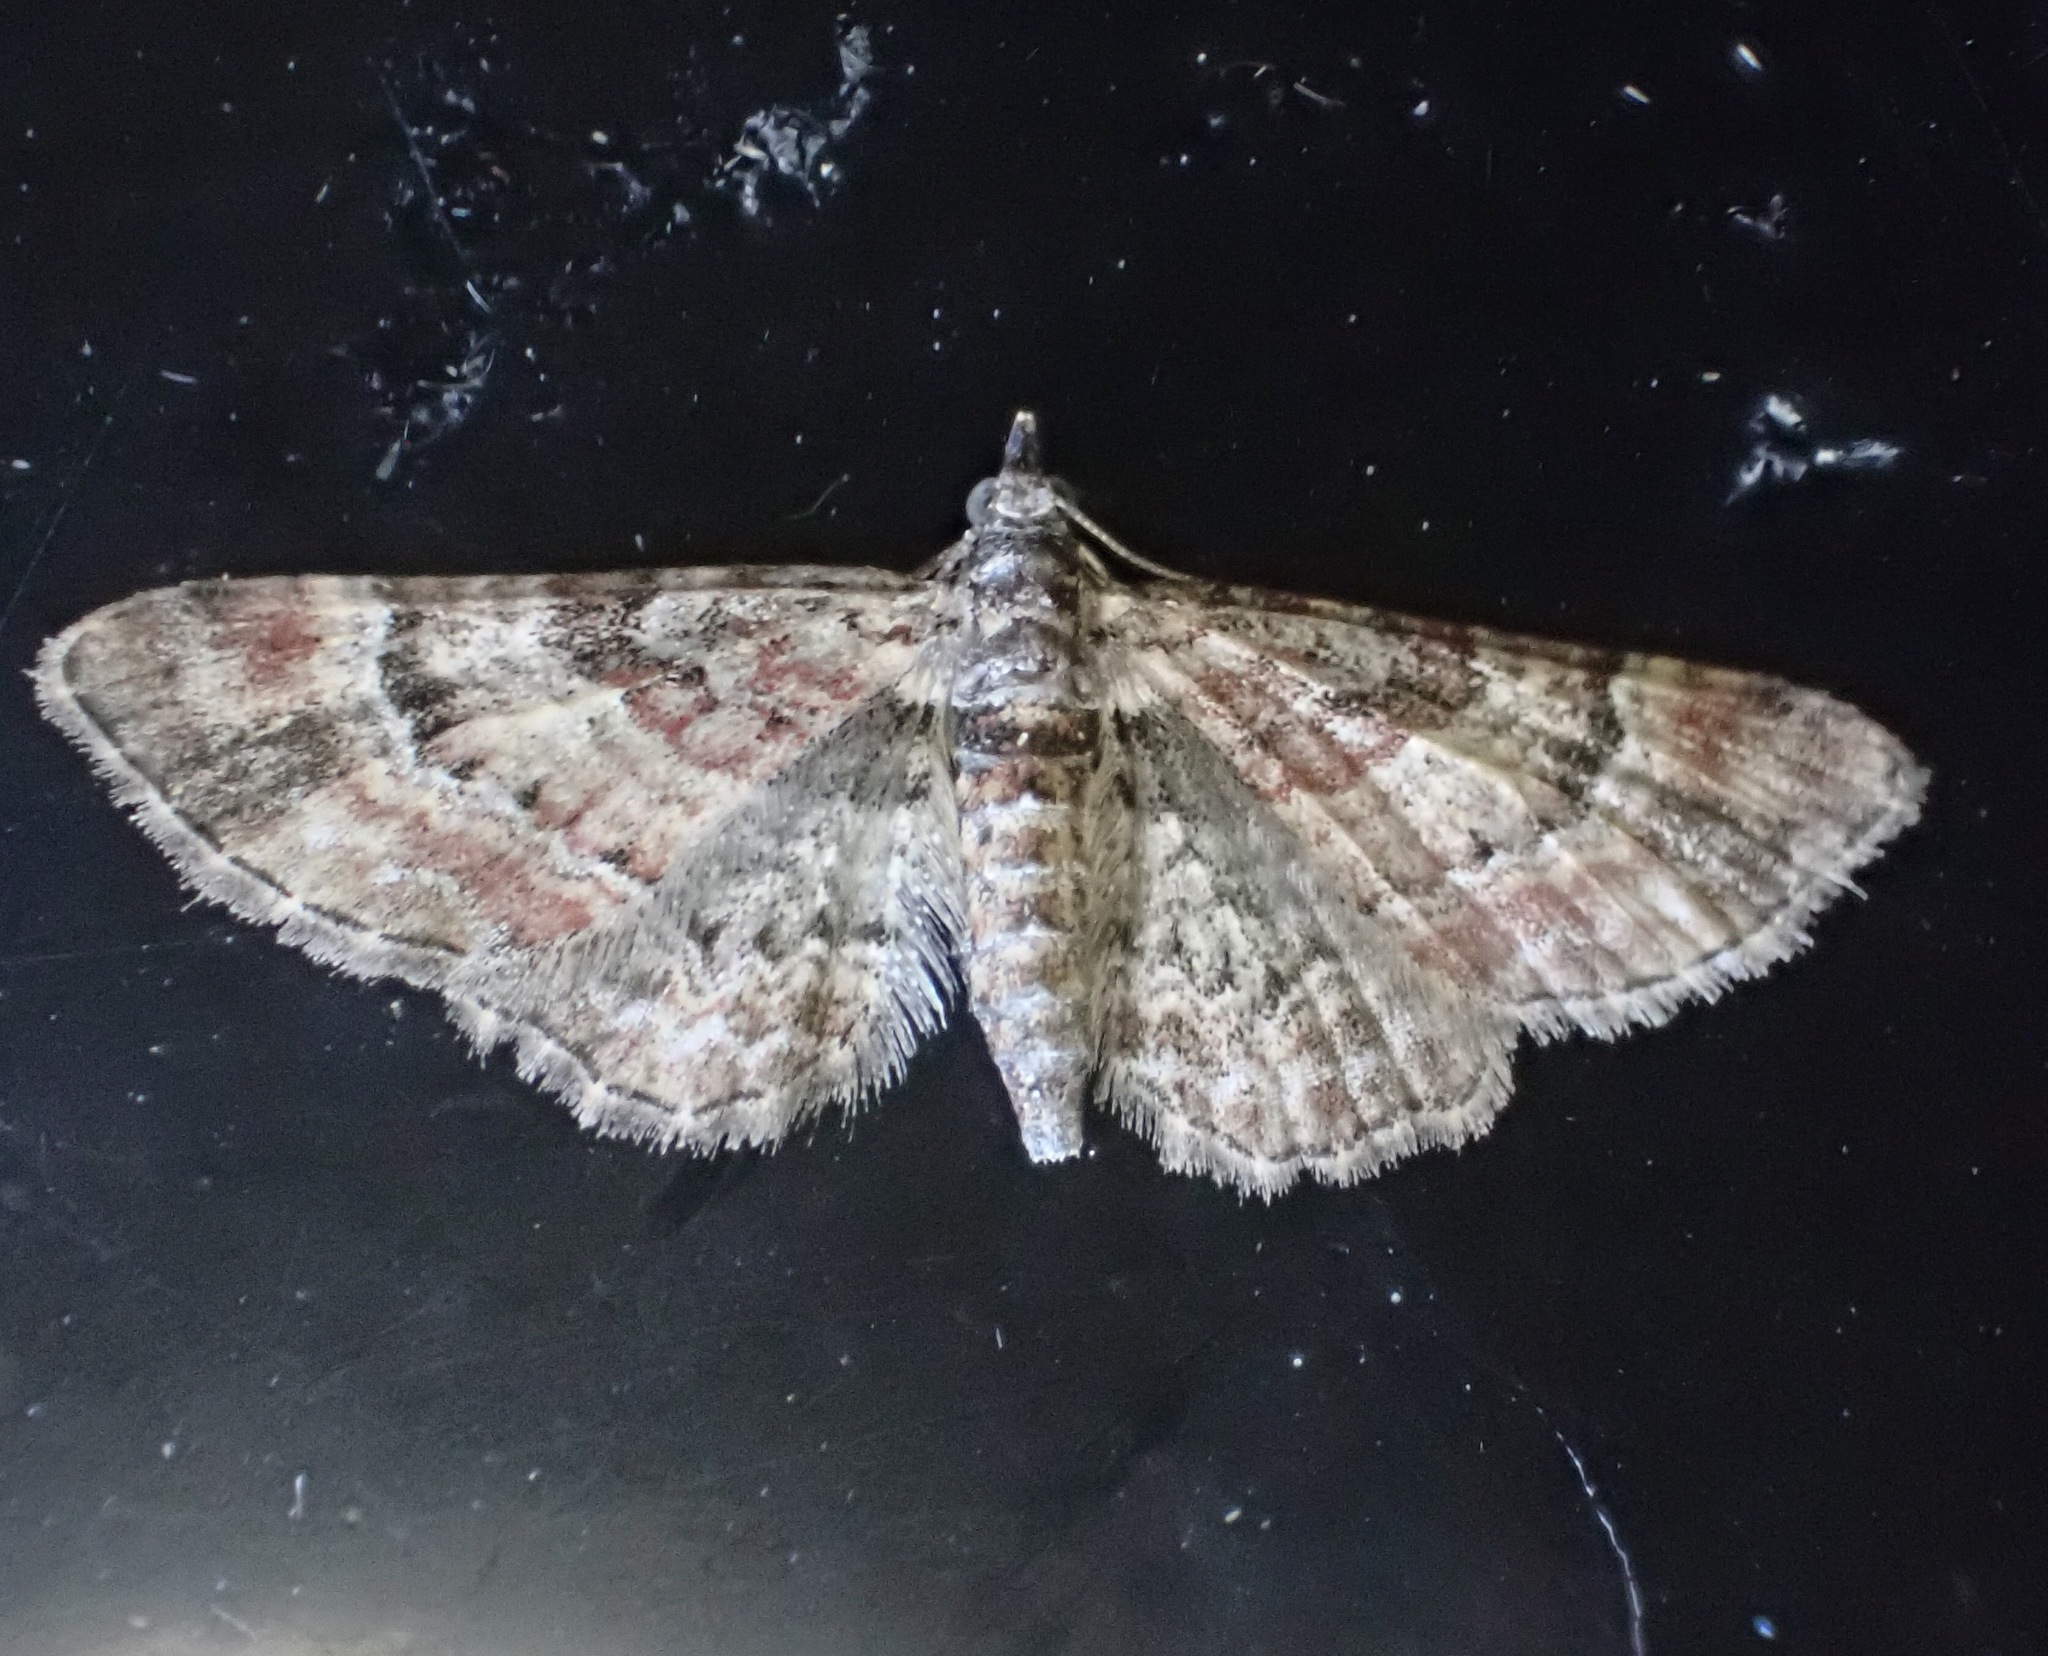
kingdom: Animalia
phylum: Arthropoda
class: Insecta
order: Lepidoptera
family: Geometridae
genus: Gymnoscelis
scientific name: Gymnoscelis rufifasciata
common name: Double-striped pug
